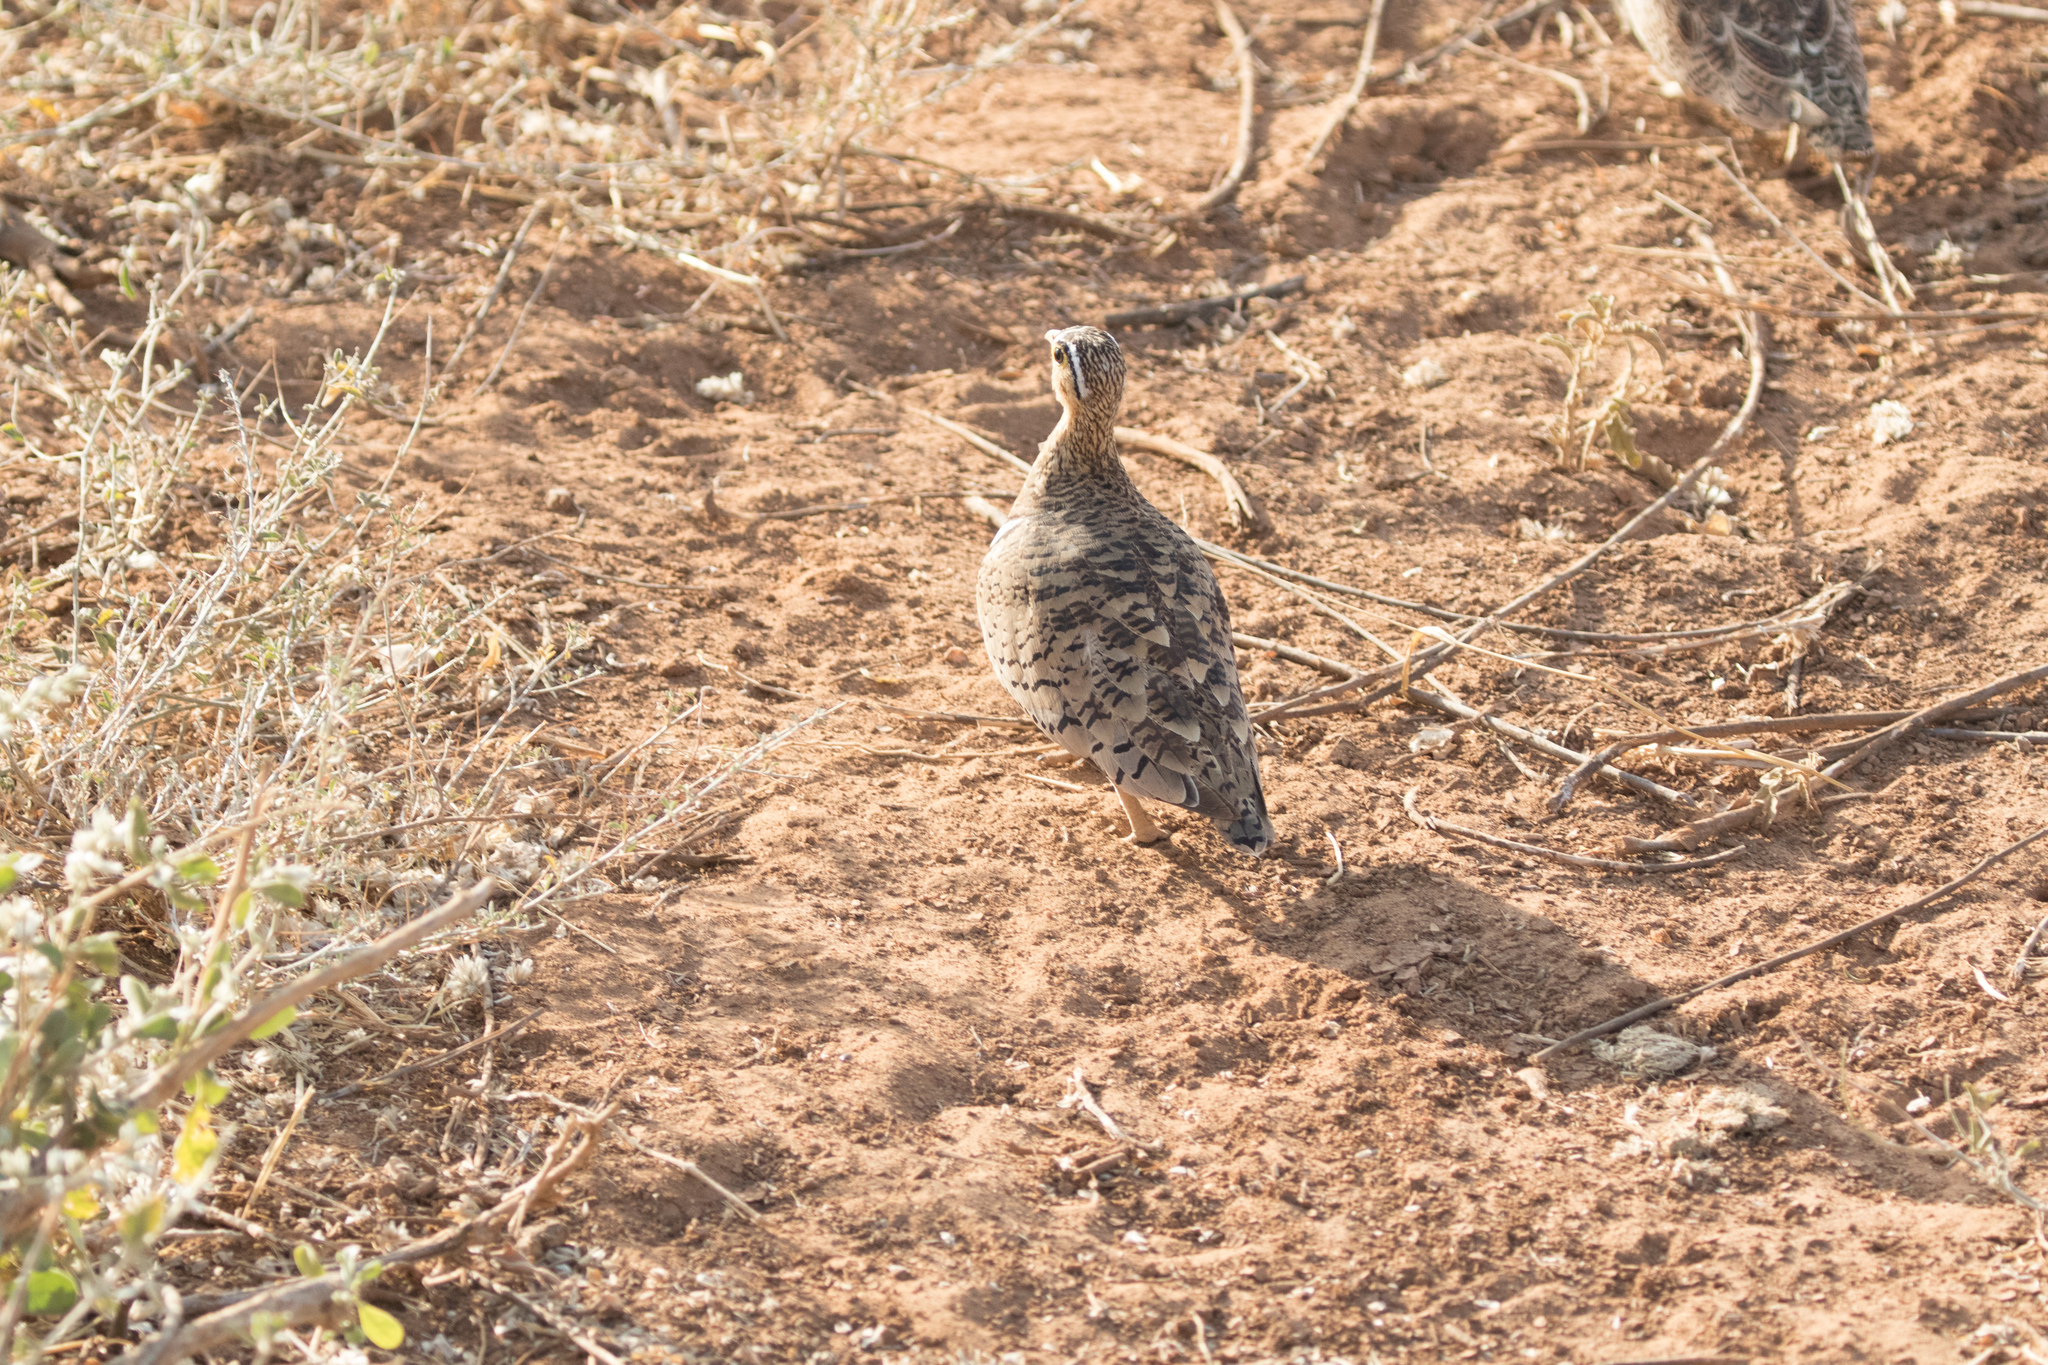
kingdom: Animalia
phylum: Chordata
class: Aves
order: Pteroclidiformes
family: Pteroclididae
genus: Pterocles
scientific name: Pterocles decoratus
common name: Black-faced sandgrouse
